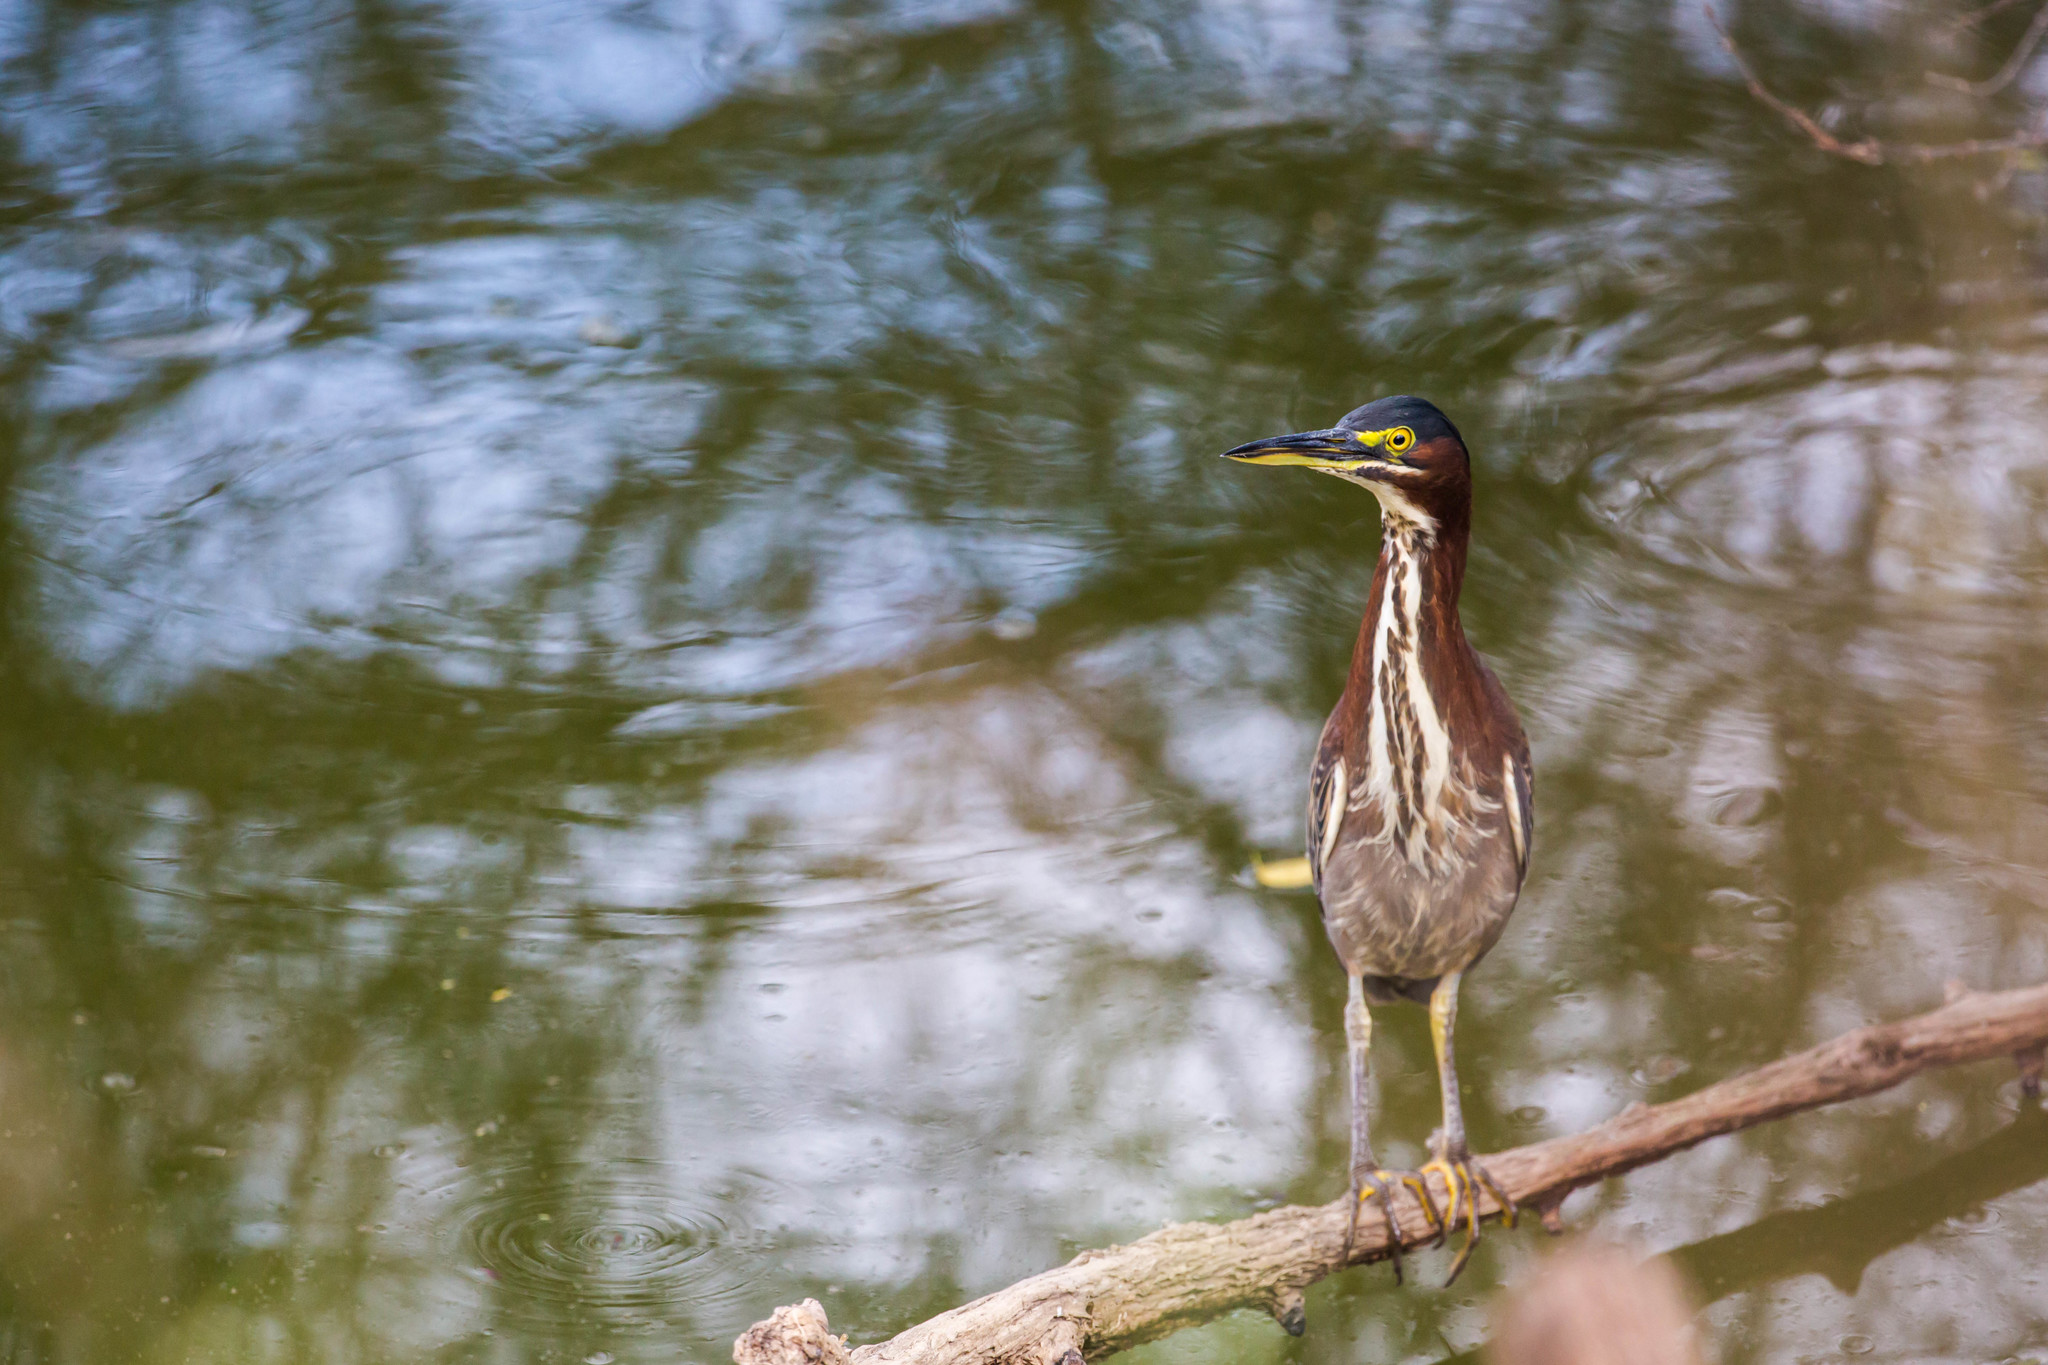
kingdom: Animalia
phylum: Chordata
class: Aves
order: Pelecaniformes
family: Ardeidae
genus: Butorides
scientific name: Butorides virescens
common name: Green heron
